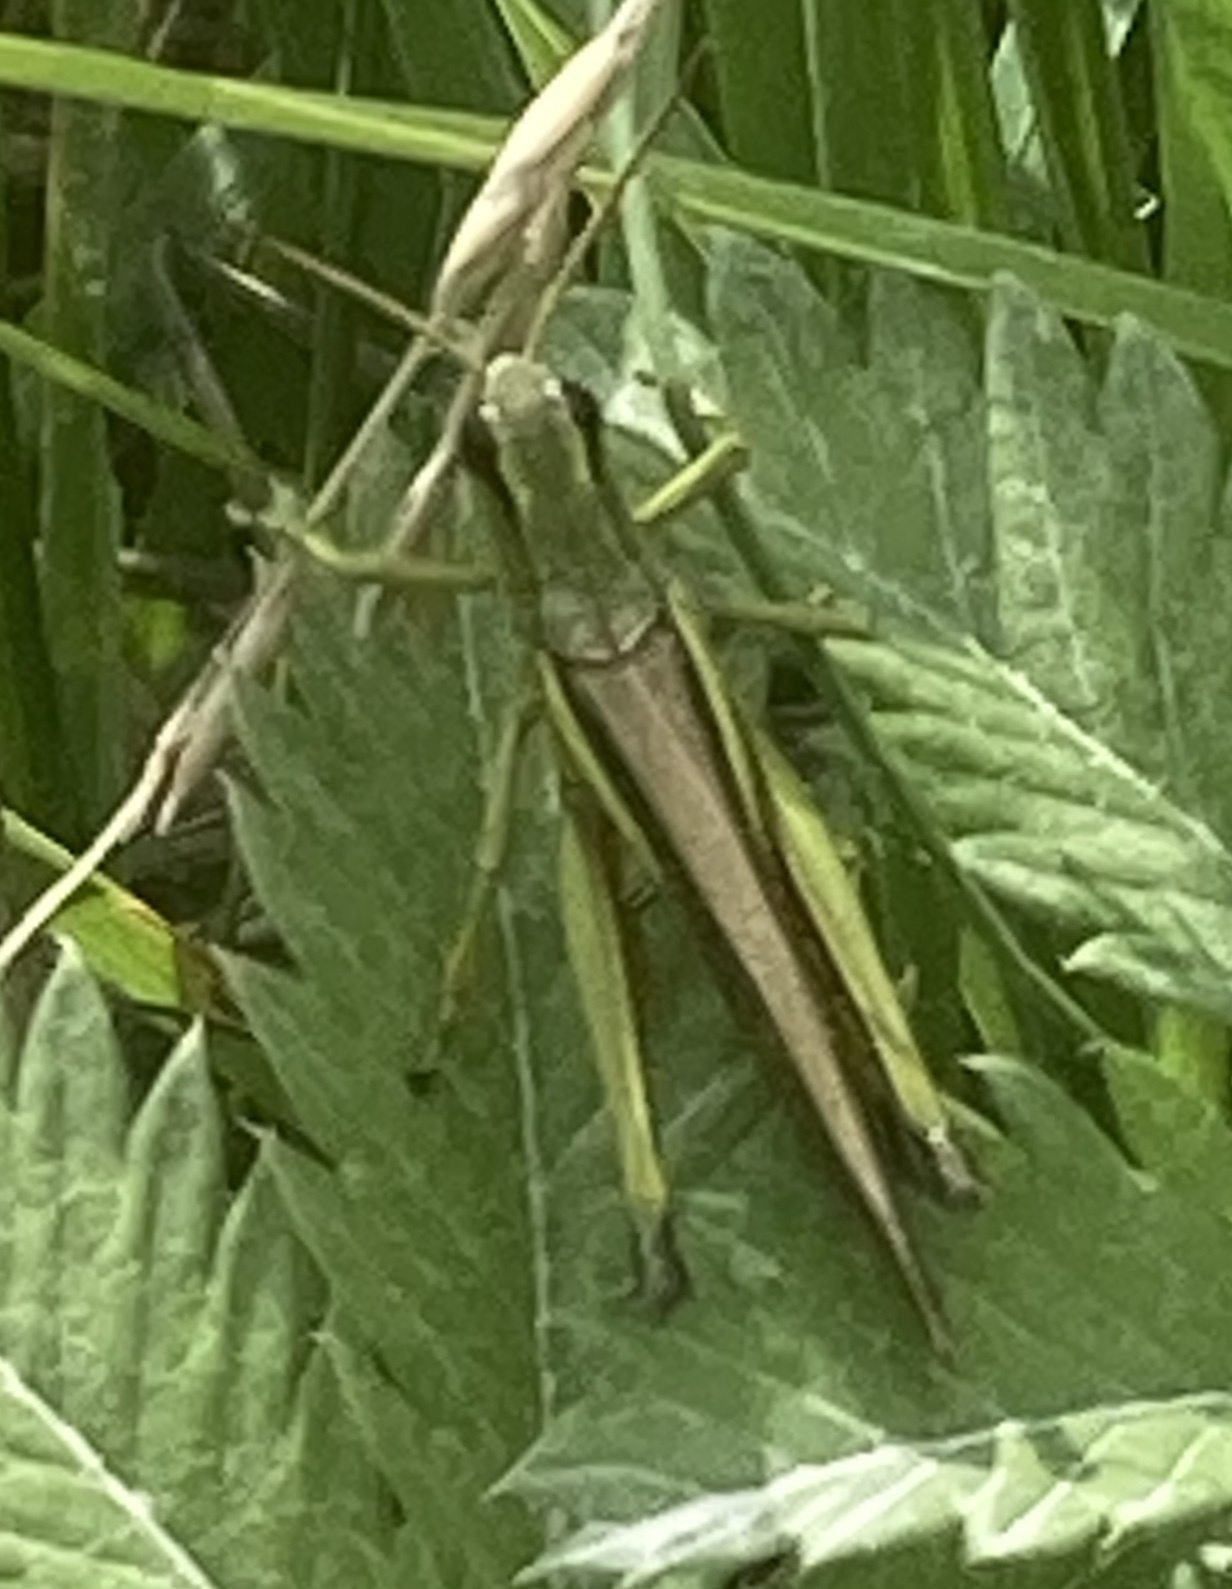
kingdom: Animalia
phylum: Arthropoda
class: Insecta
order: Orthoptera
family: Acrididae
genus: Stethophyma
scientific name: Stethophyma grossum
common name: Large marsh grasshopper
